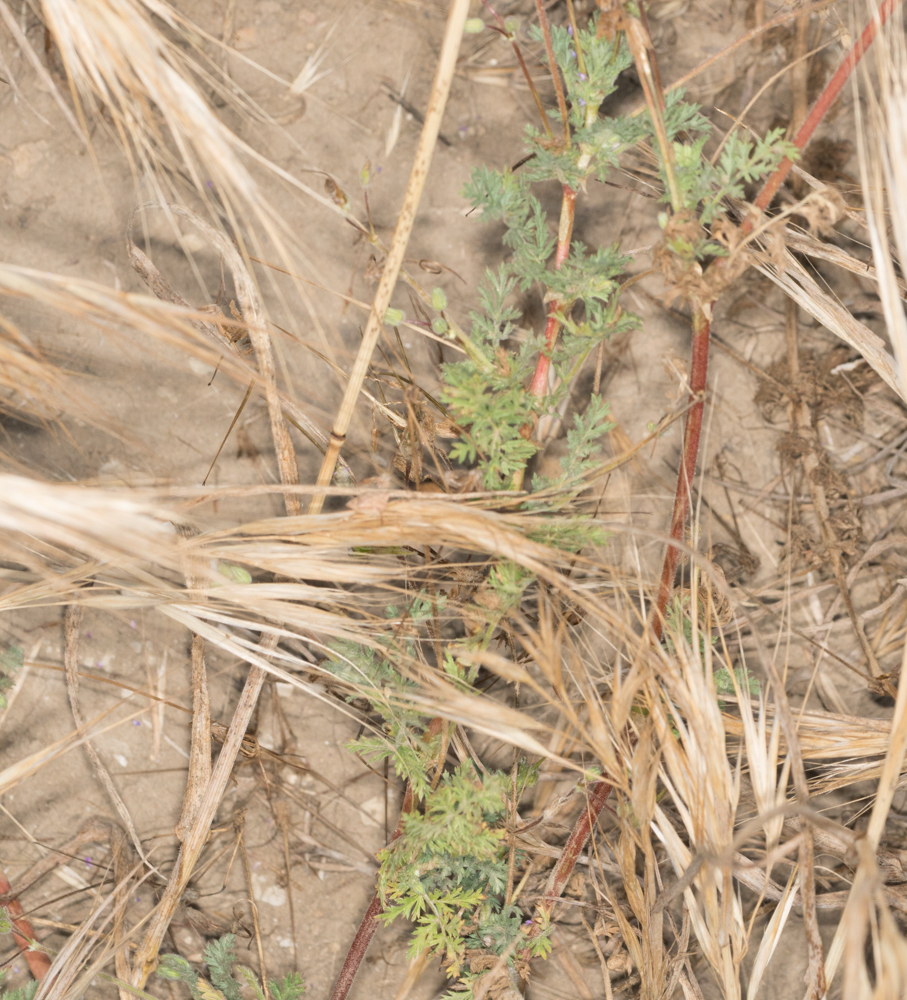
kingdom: Plantae
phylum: Tracheophyta
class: Magnoliopsida
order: Geraniales
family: Geraniaceae
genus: Erodium
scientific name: Erodium cicutarium
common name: Common stork's-bill
